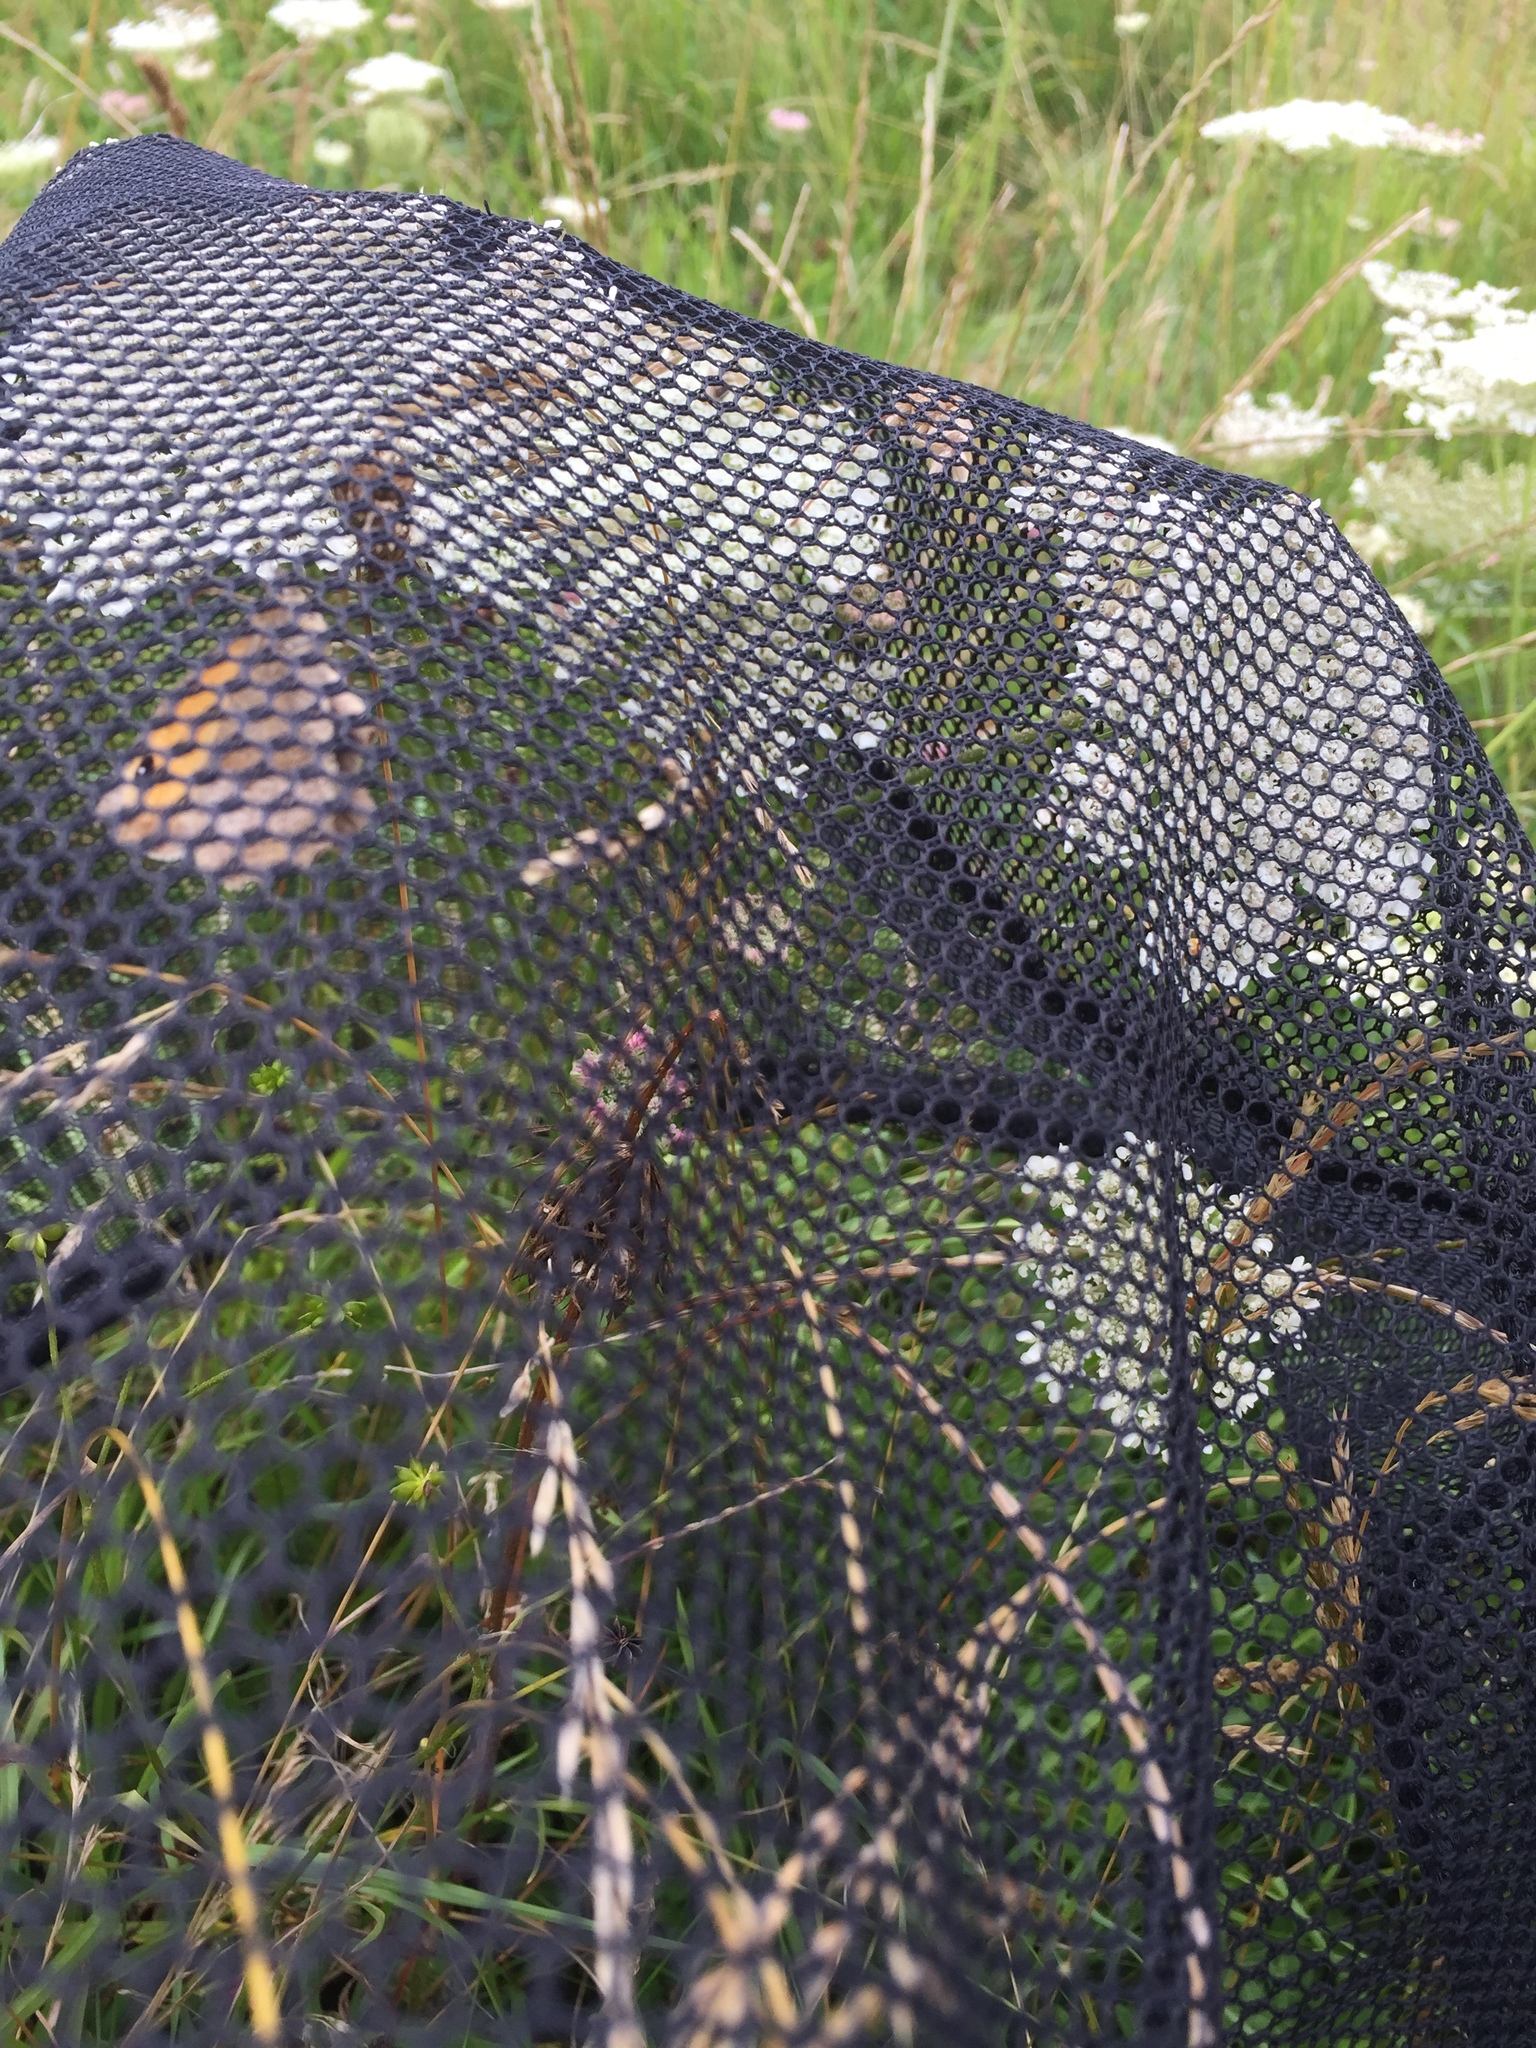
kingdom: Animalia
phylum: Arthropoda
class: Insecta
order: Lepidoptera
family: Nymphalidae
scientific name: Nymphalidae
